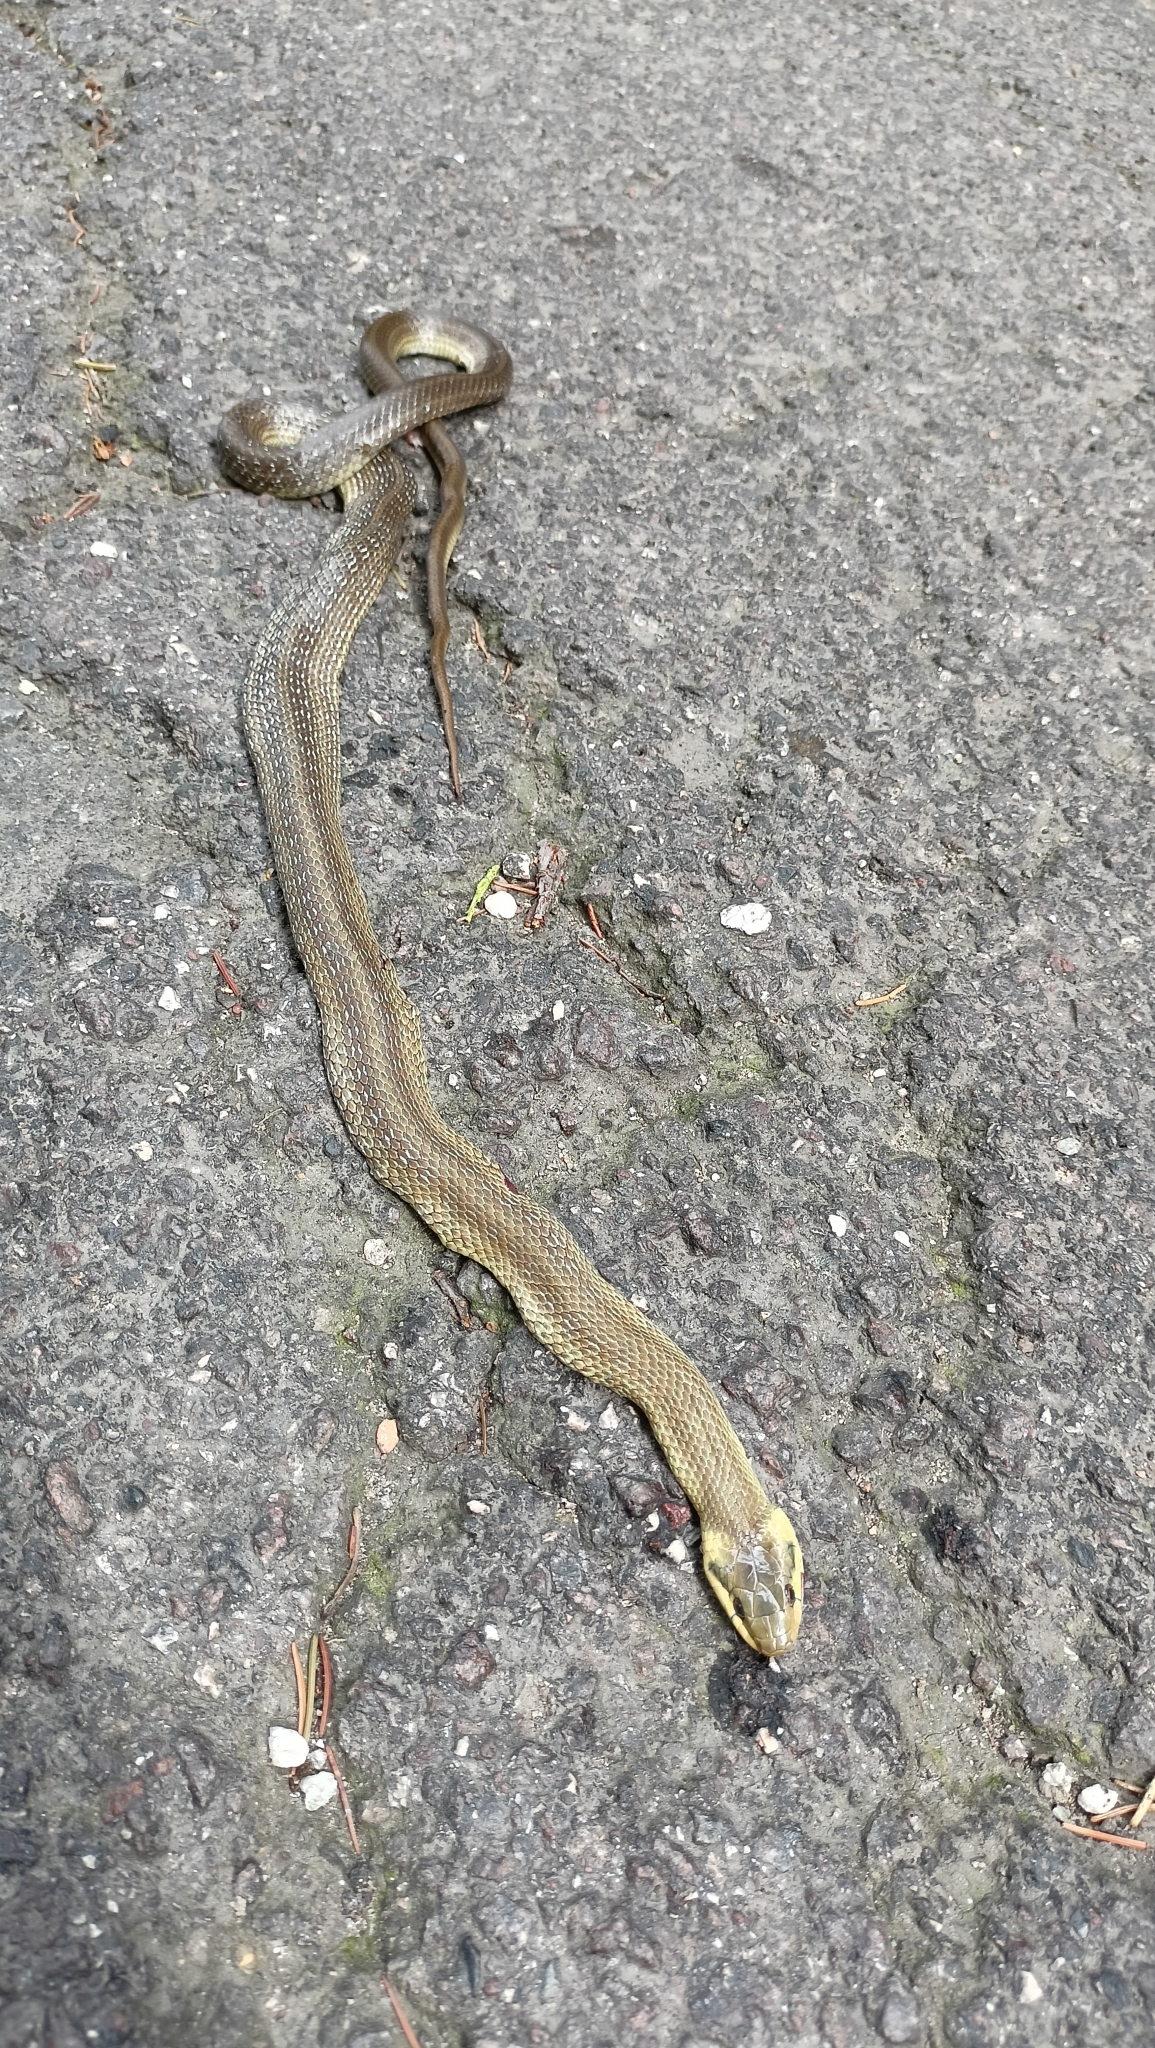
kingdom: Animalia
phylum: Chordata
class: Squamata
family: Colubridae
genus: Zamenis
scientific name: Zamenis longissimus
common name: Aesculapean snake
